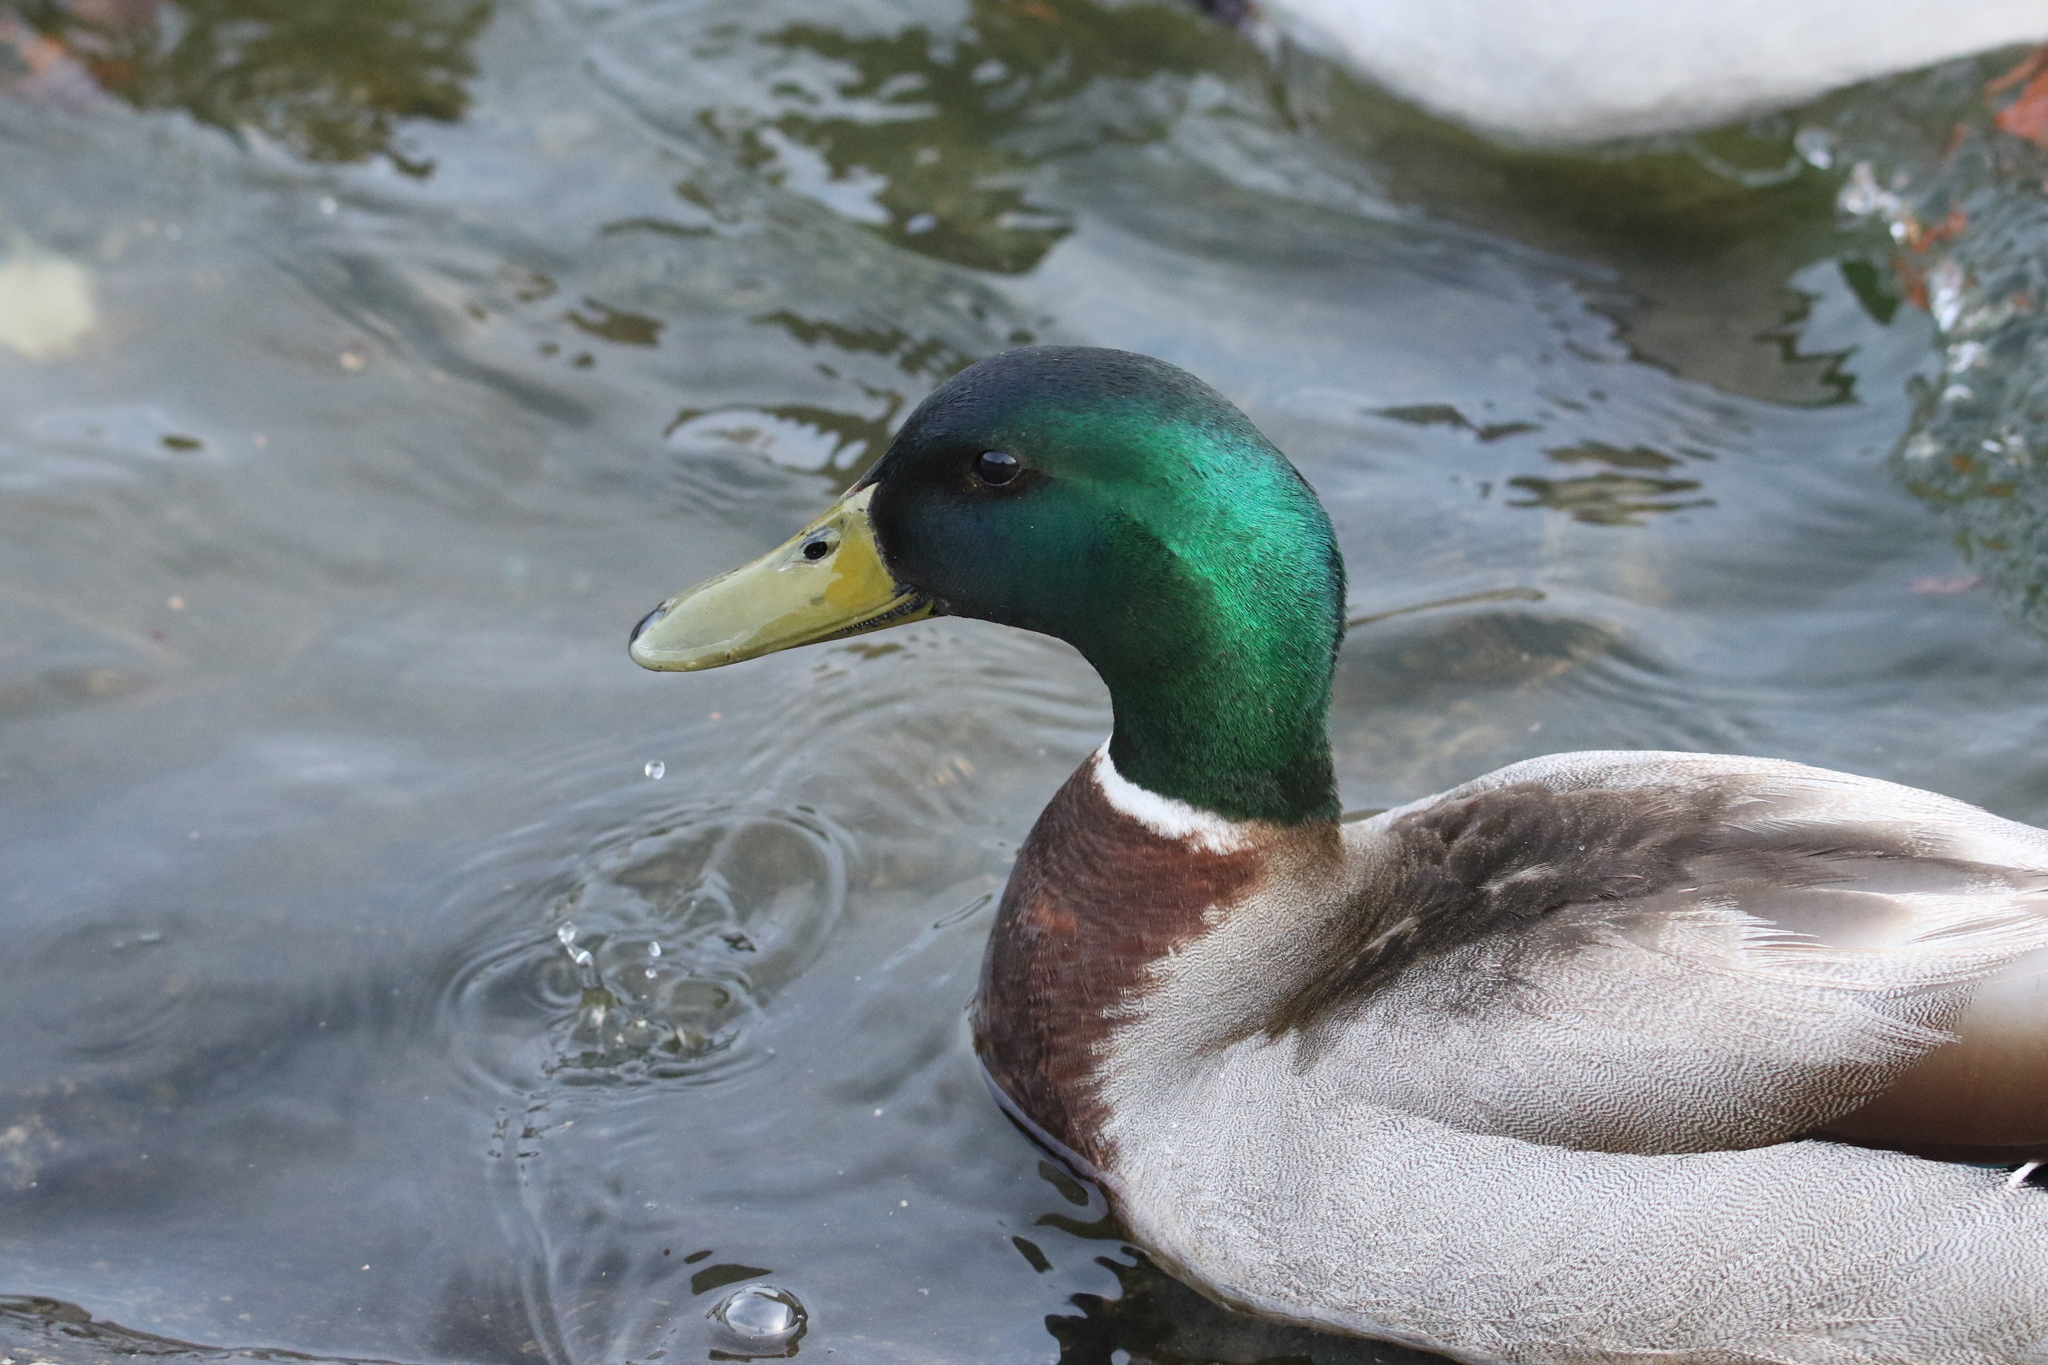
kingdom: Animalia
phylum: Chordata
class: Aves
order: Anseriformes
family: Anatidae
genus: Anas
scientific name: Anas platyrhynchos
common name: Mallard
